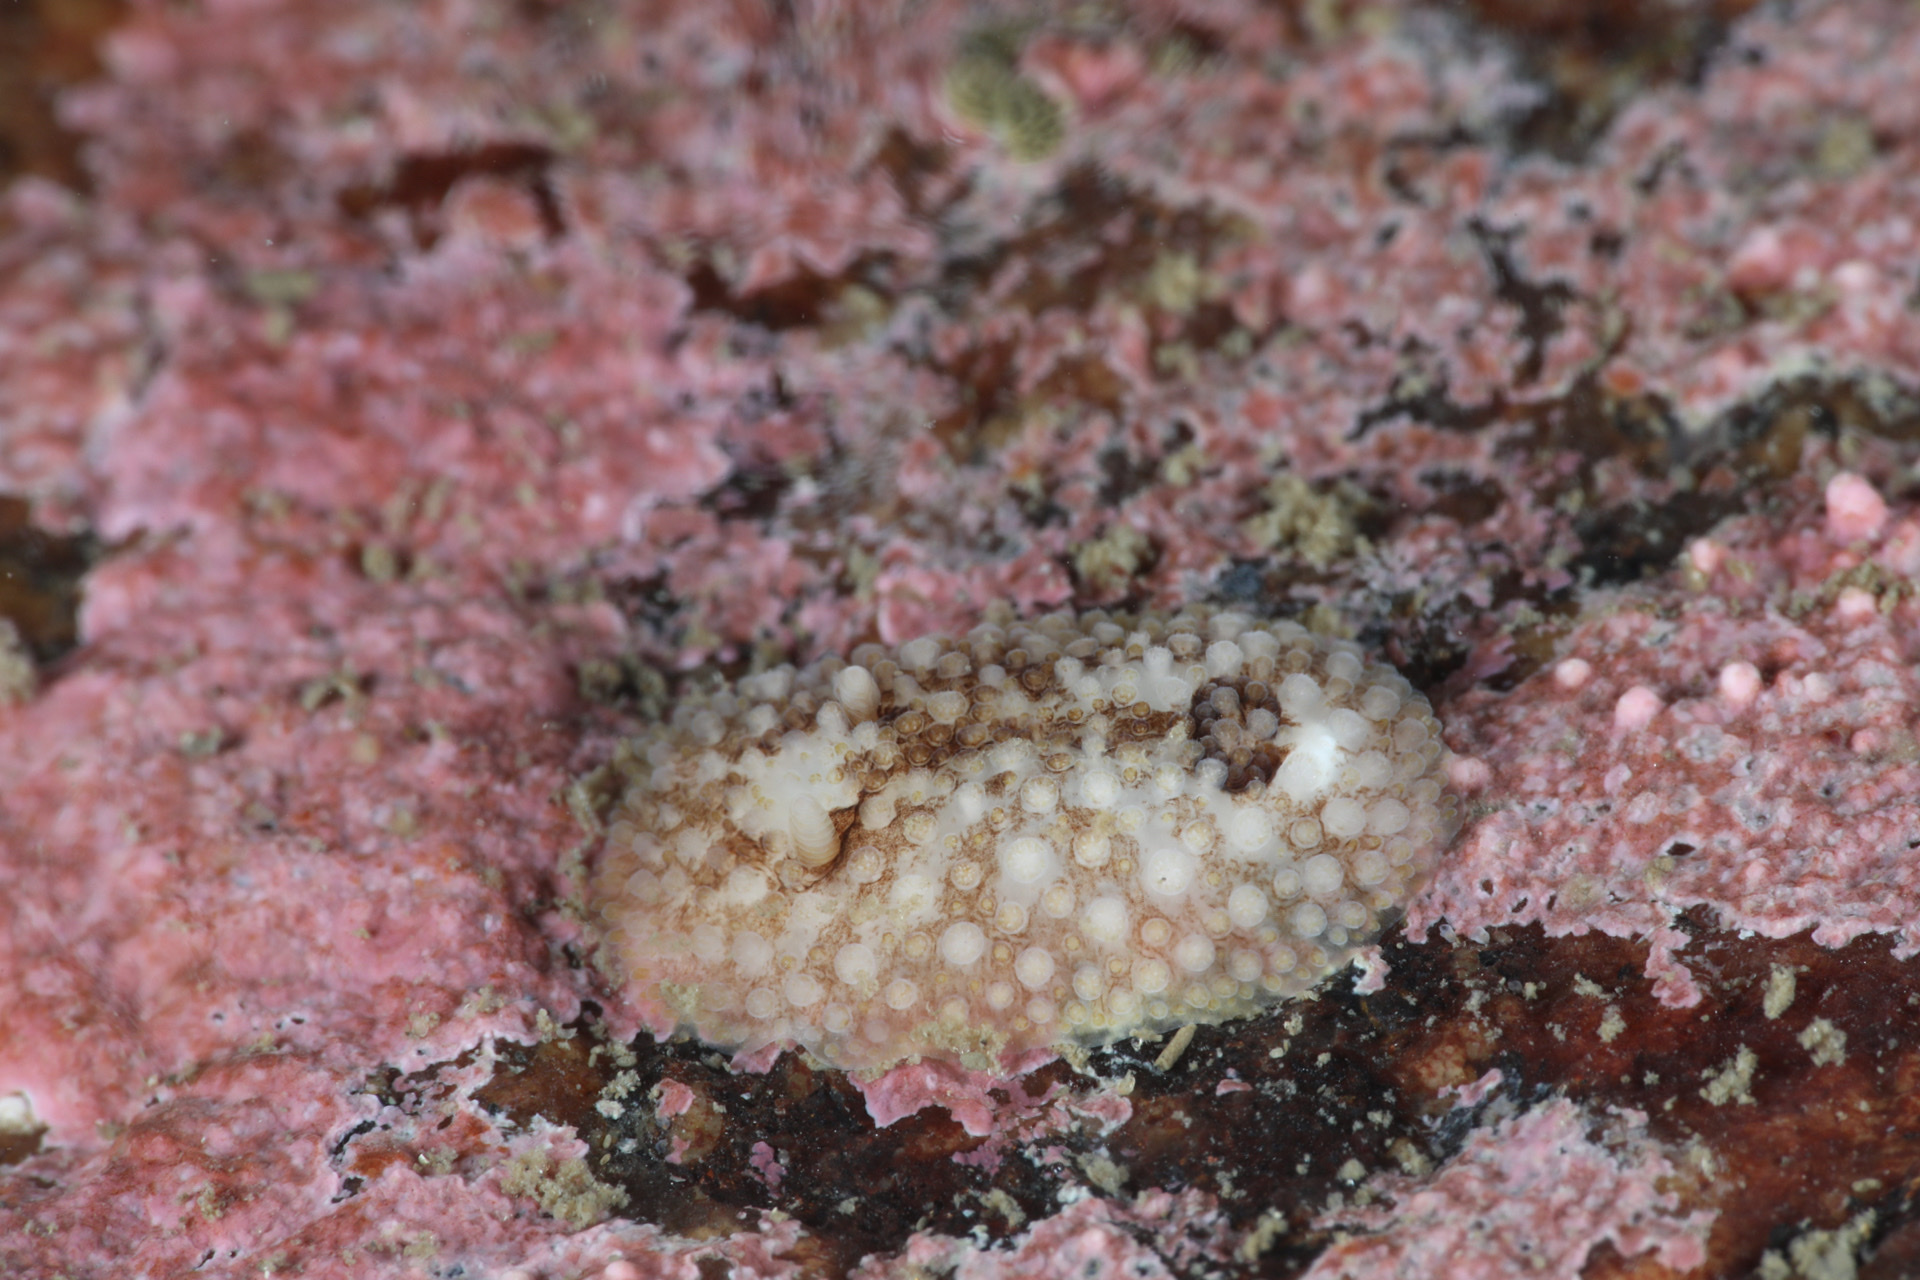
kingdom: Animalia
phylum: Mollusca
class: Gastropoda
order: Nudibranchia
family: Onchidorididae
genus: Onchidoris
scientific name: Onchidoris bilamellata
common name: Barnacle-eating onchidoris
